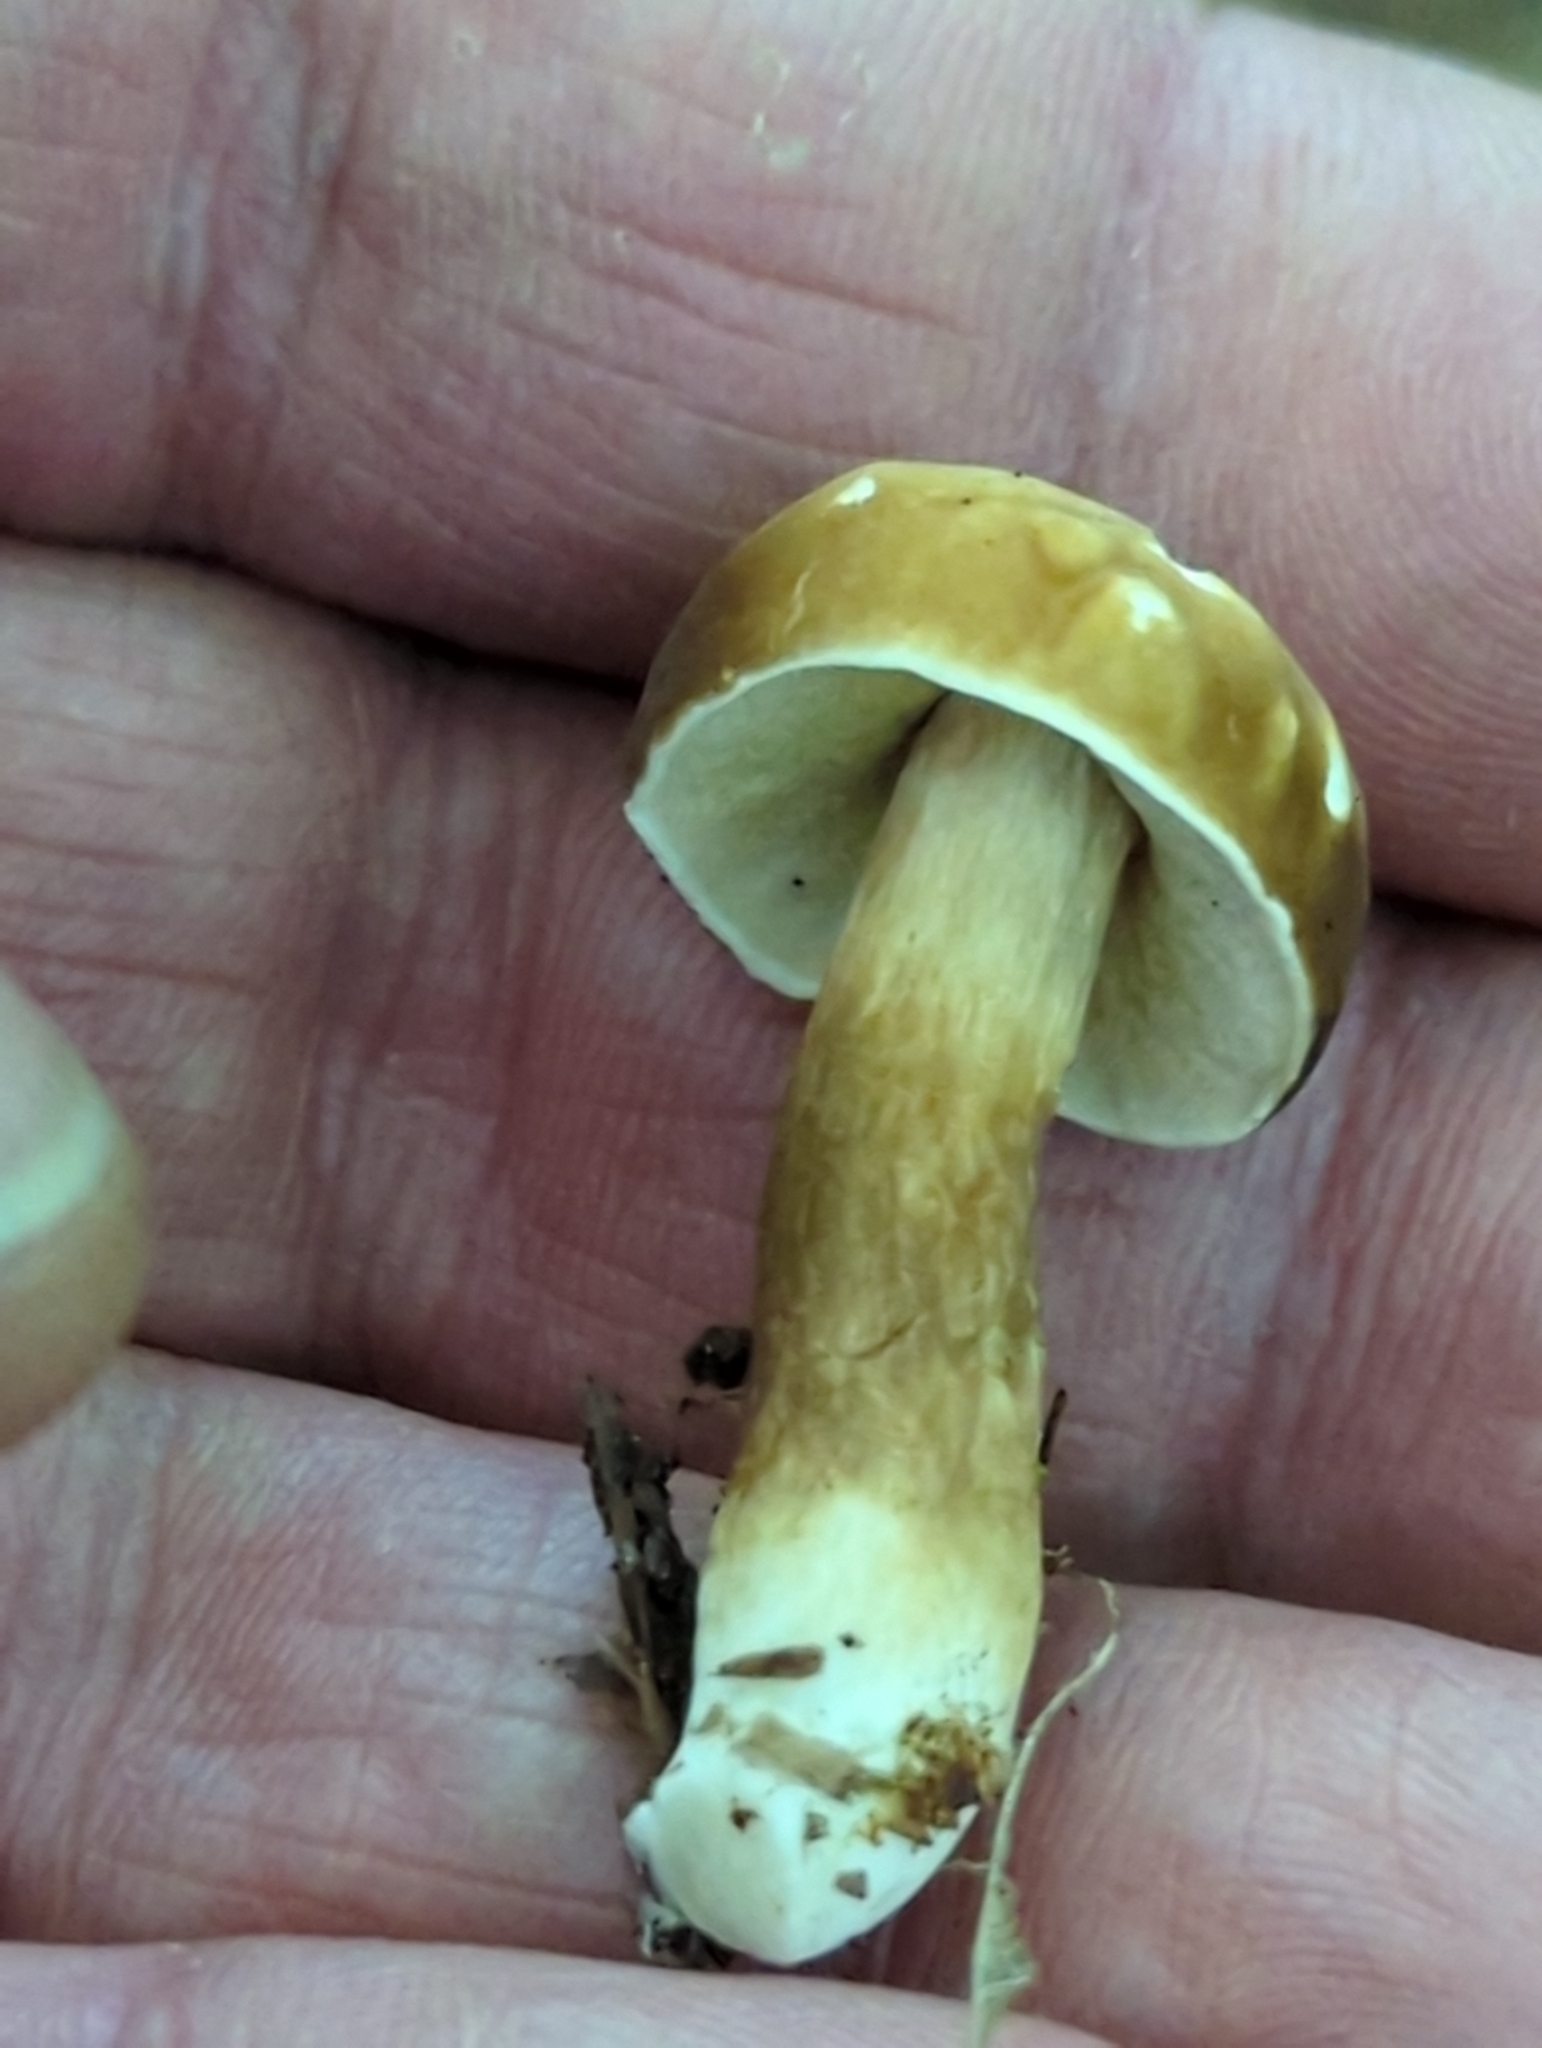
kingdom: Fungi
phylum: Basidiomycota
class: Agaricomycetes
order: Boletales
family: Boletaceae
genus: Xanthoconium
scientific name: Xanthoconium affine
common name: Spotted bolete
